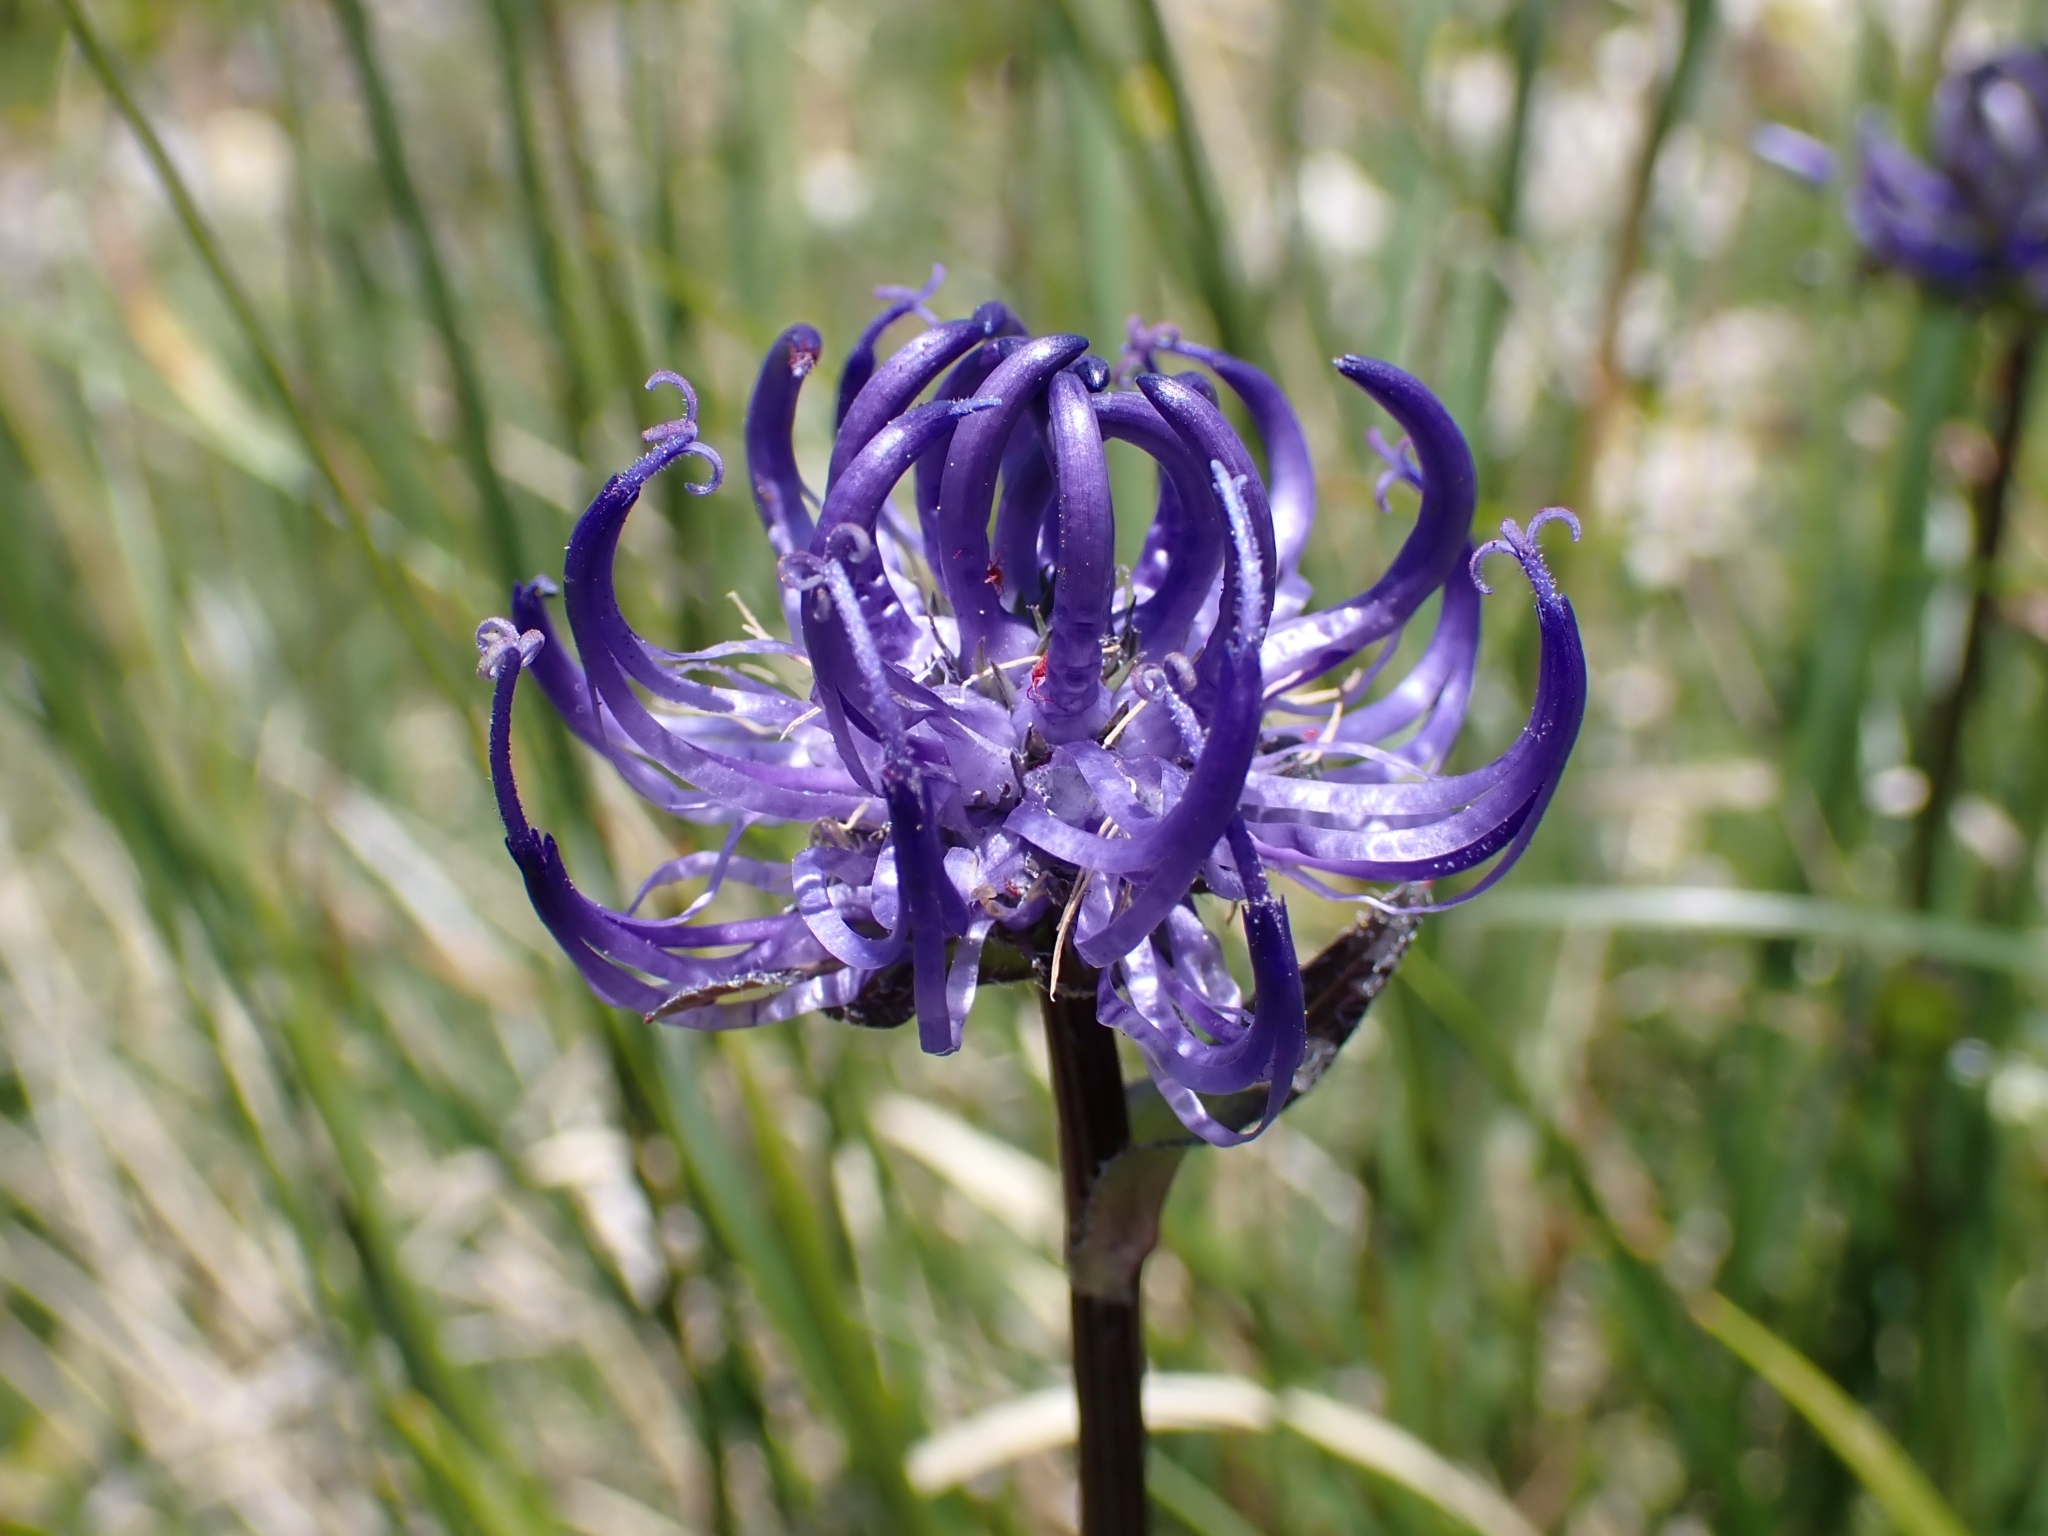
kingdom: Plantae
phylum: Tracheophyta
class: Magnoliopsida
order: Asterales
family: Campanulaceae
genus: Phyteuma
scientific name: Phyteuma orbiculare
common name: Round-headed rampion
